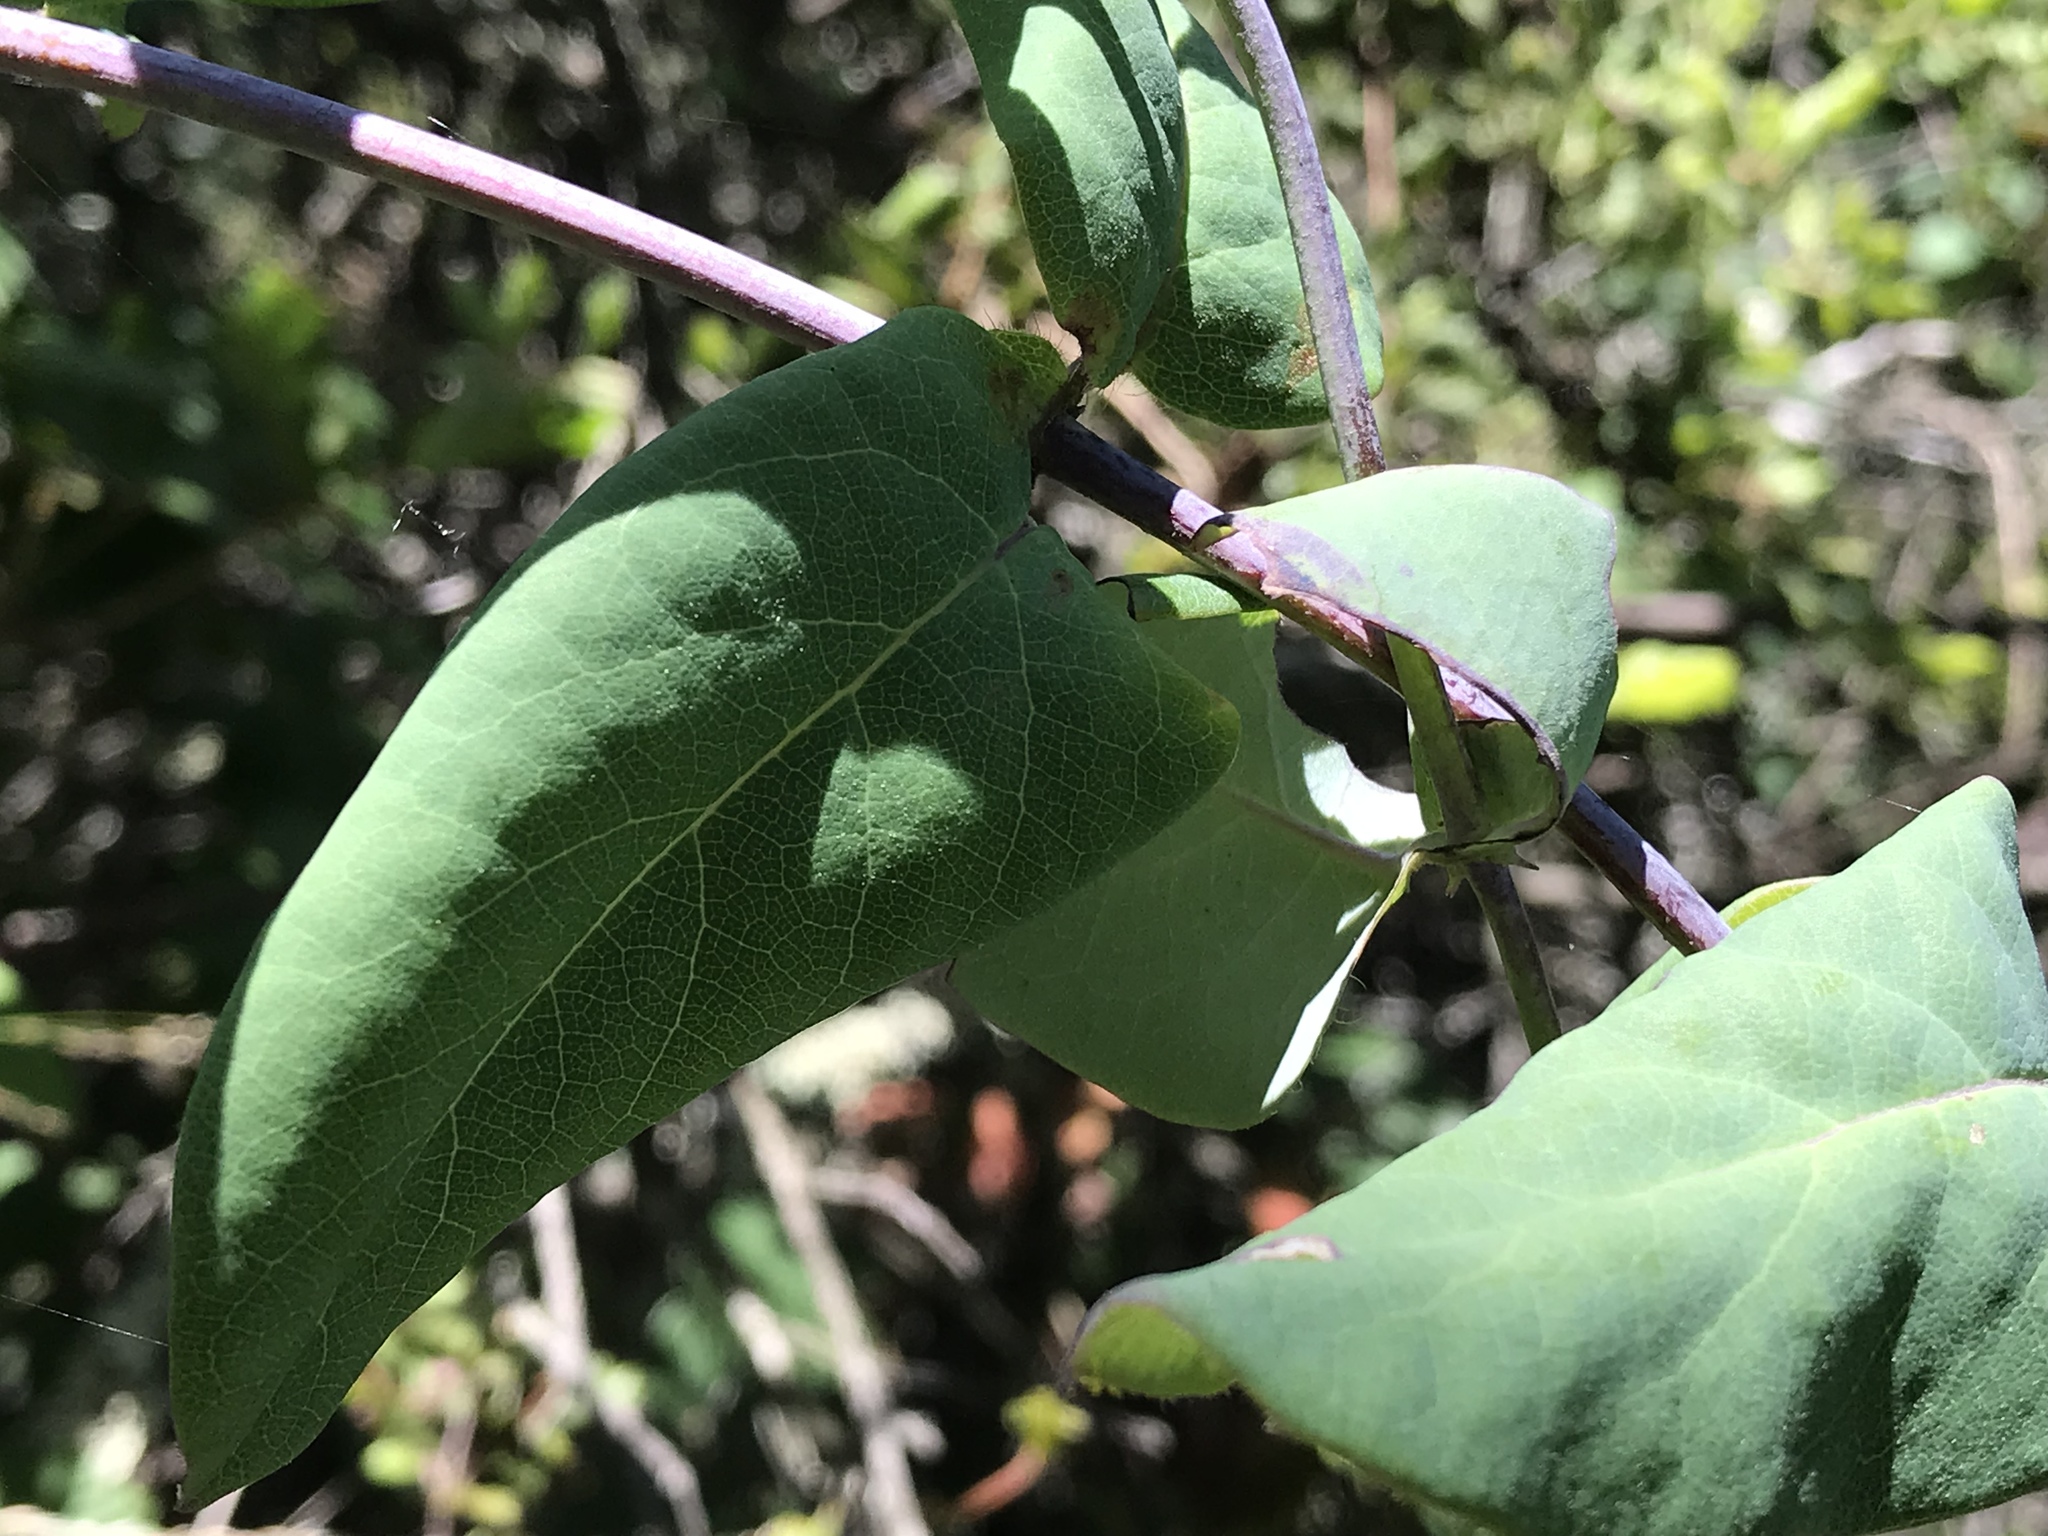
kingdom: Plantae
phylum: Tracheophyta
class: Magnoliopsida
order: Dipsacales
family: Caprifoliaceae
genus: Lonicera
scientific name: Lonicera hispidula
